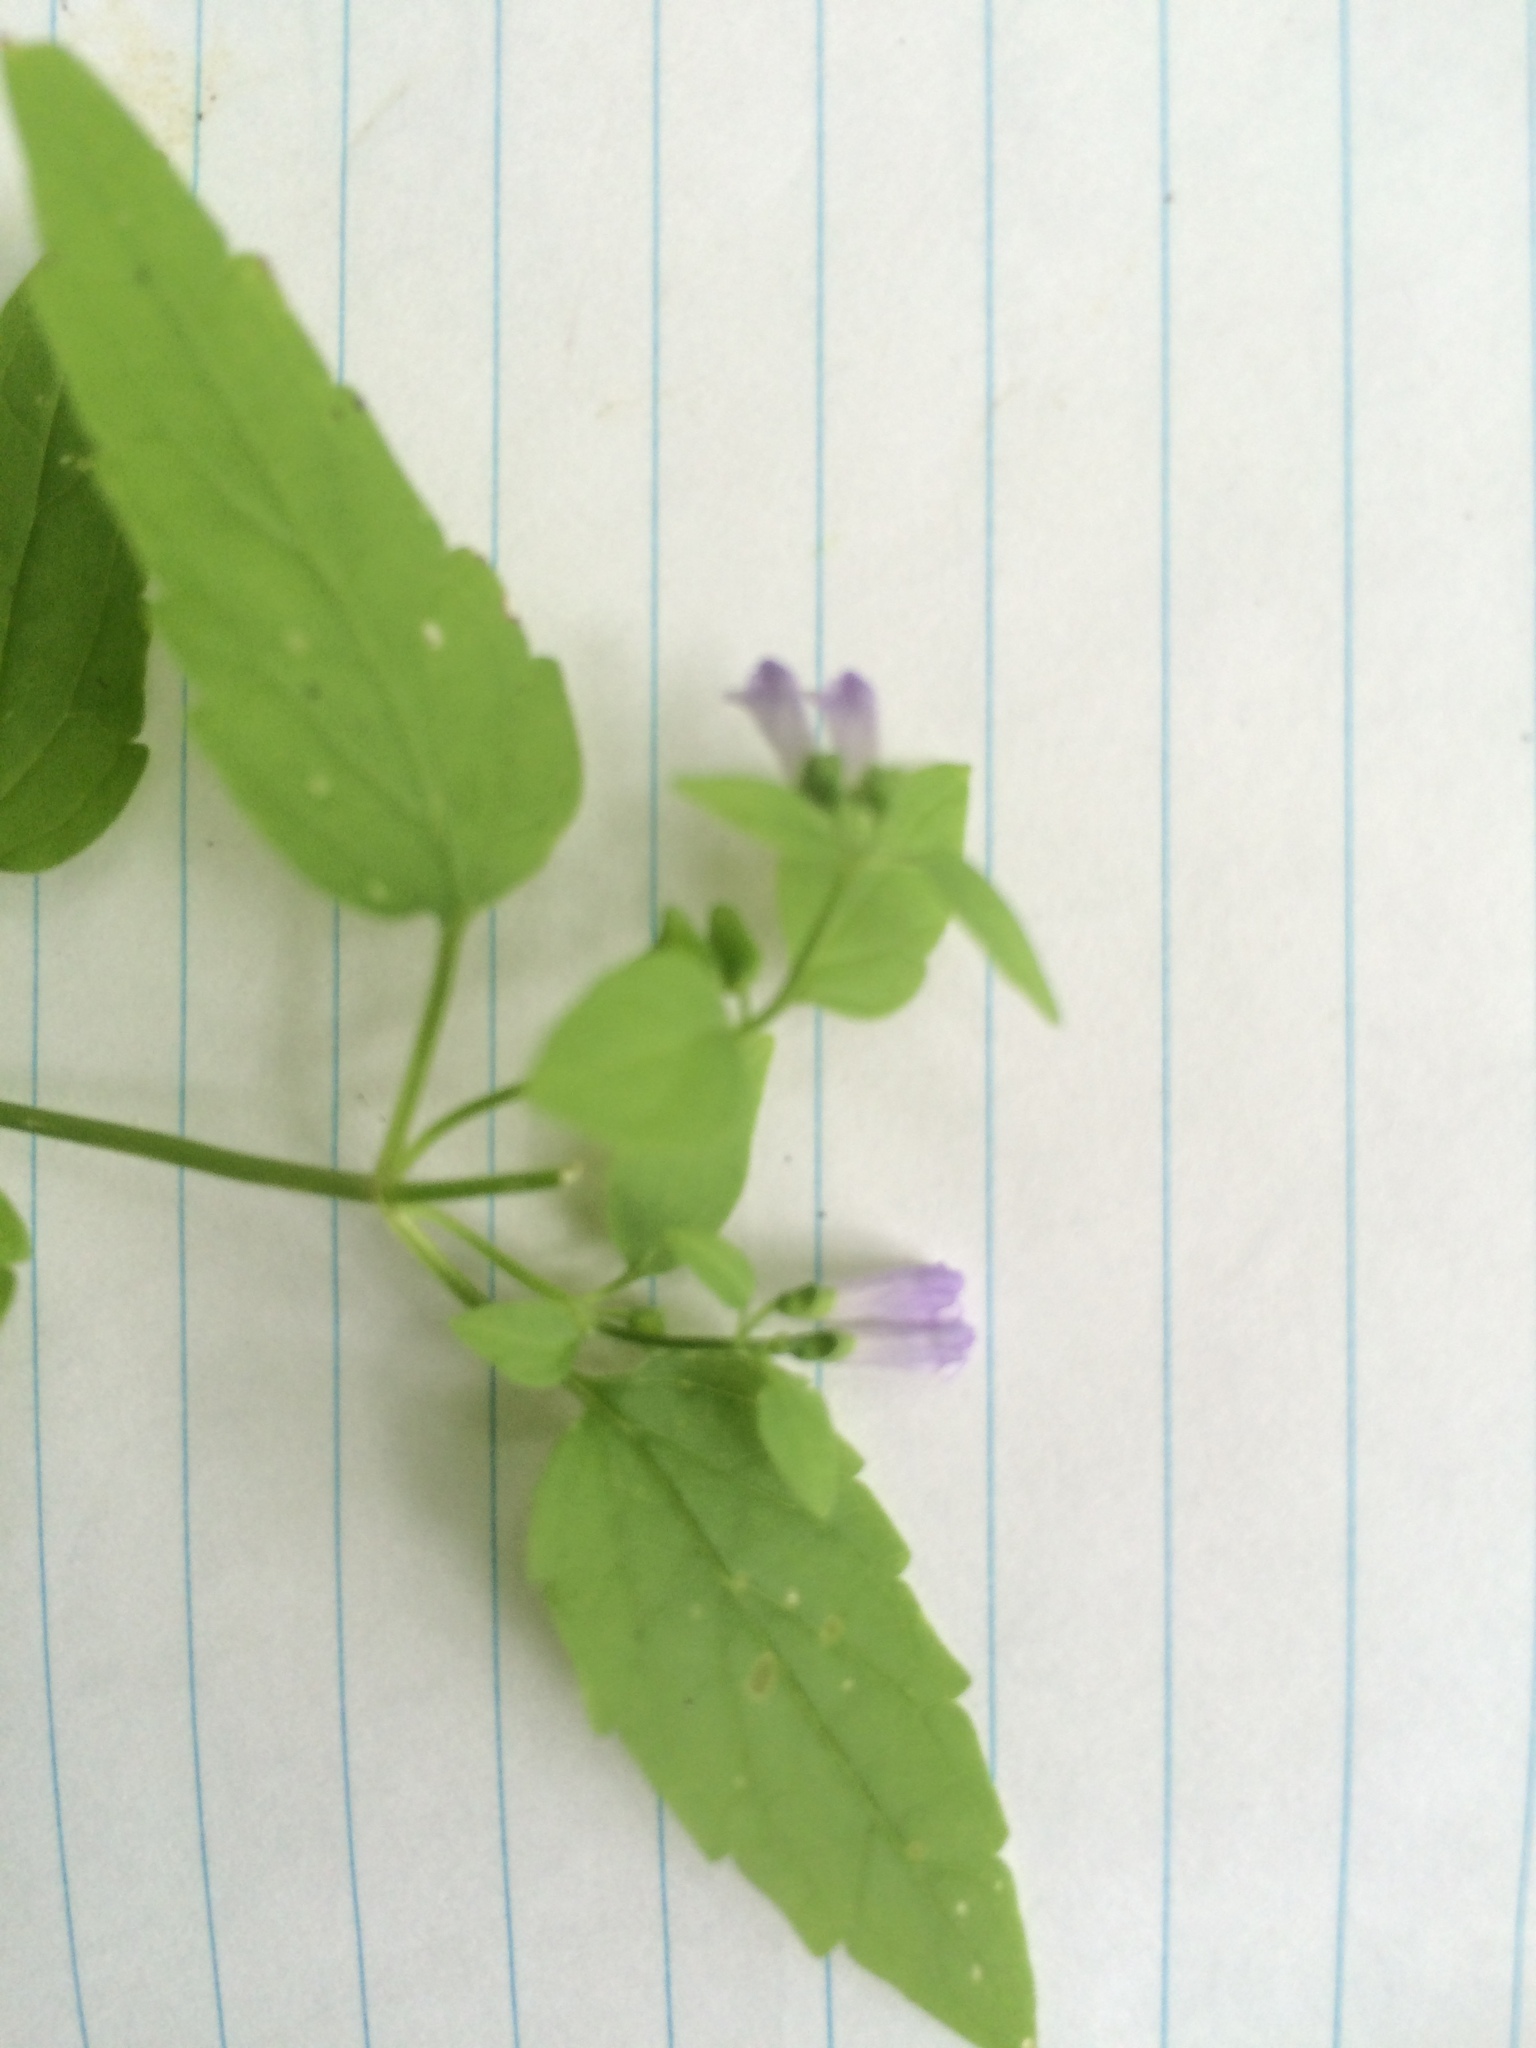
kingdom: Plantae
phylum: Tracheophyta
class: Magnoliopsida
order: Lamiales
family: Lamiaceae
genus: Scutellaria
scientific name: Scutellaria lateriflora
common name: Blue skullcap
